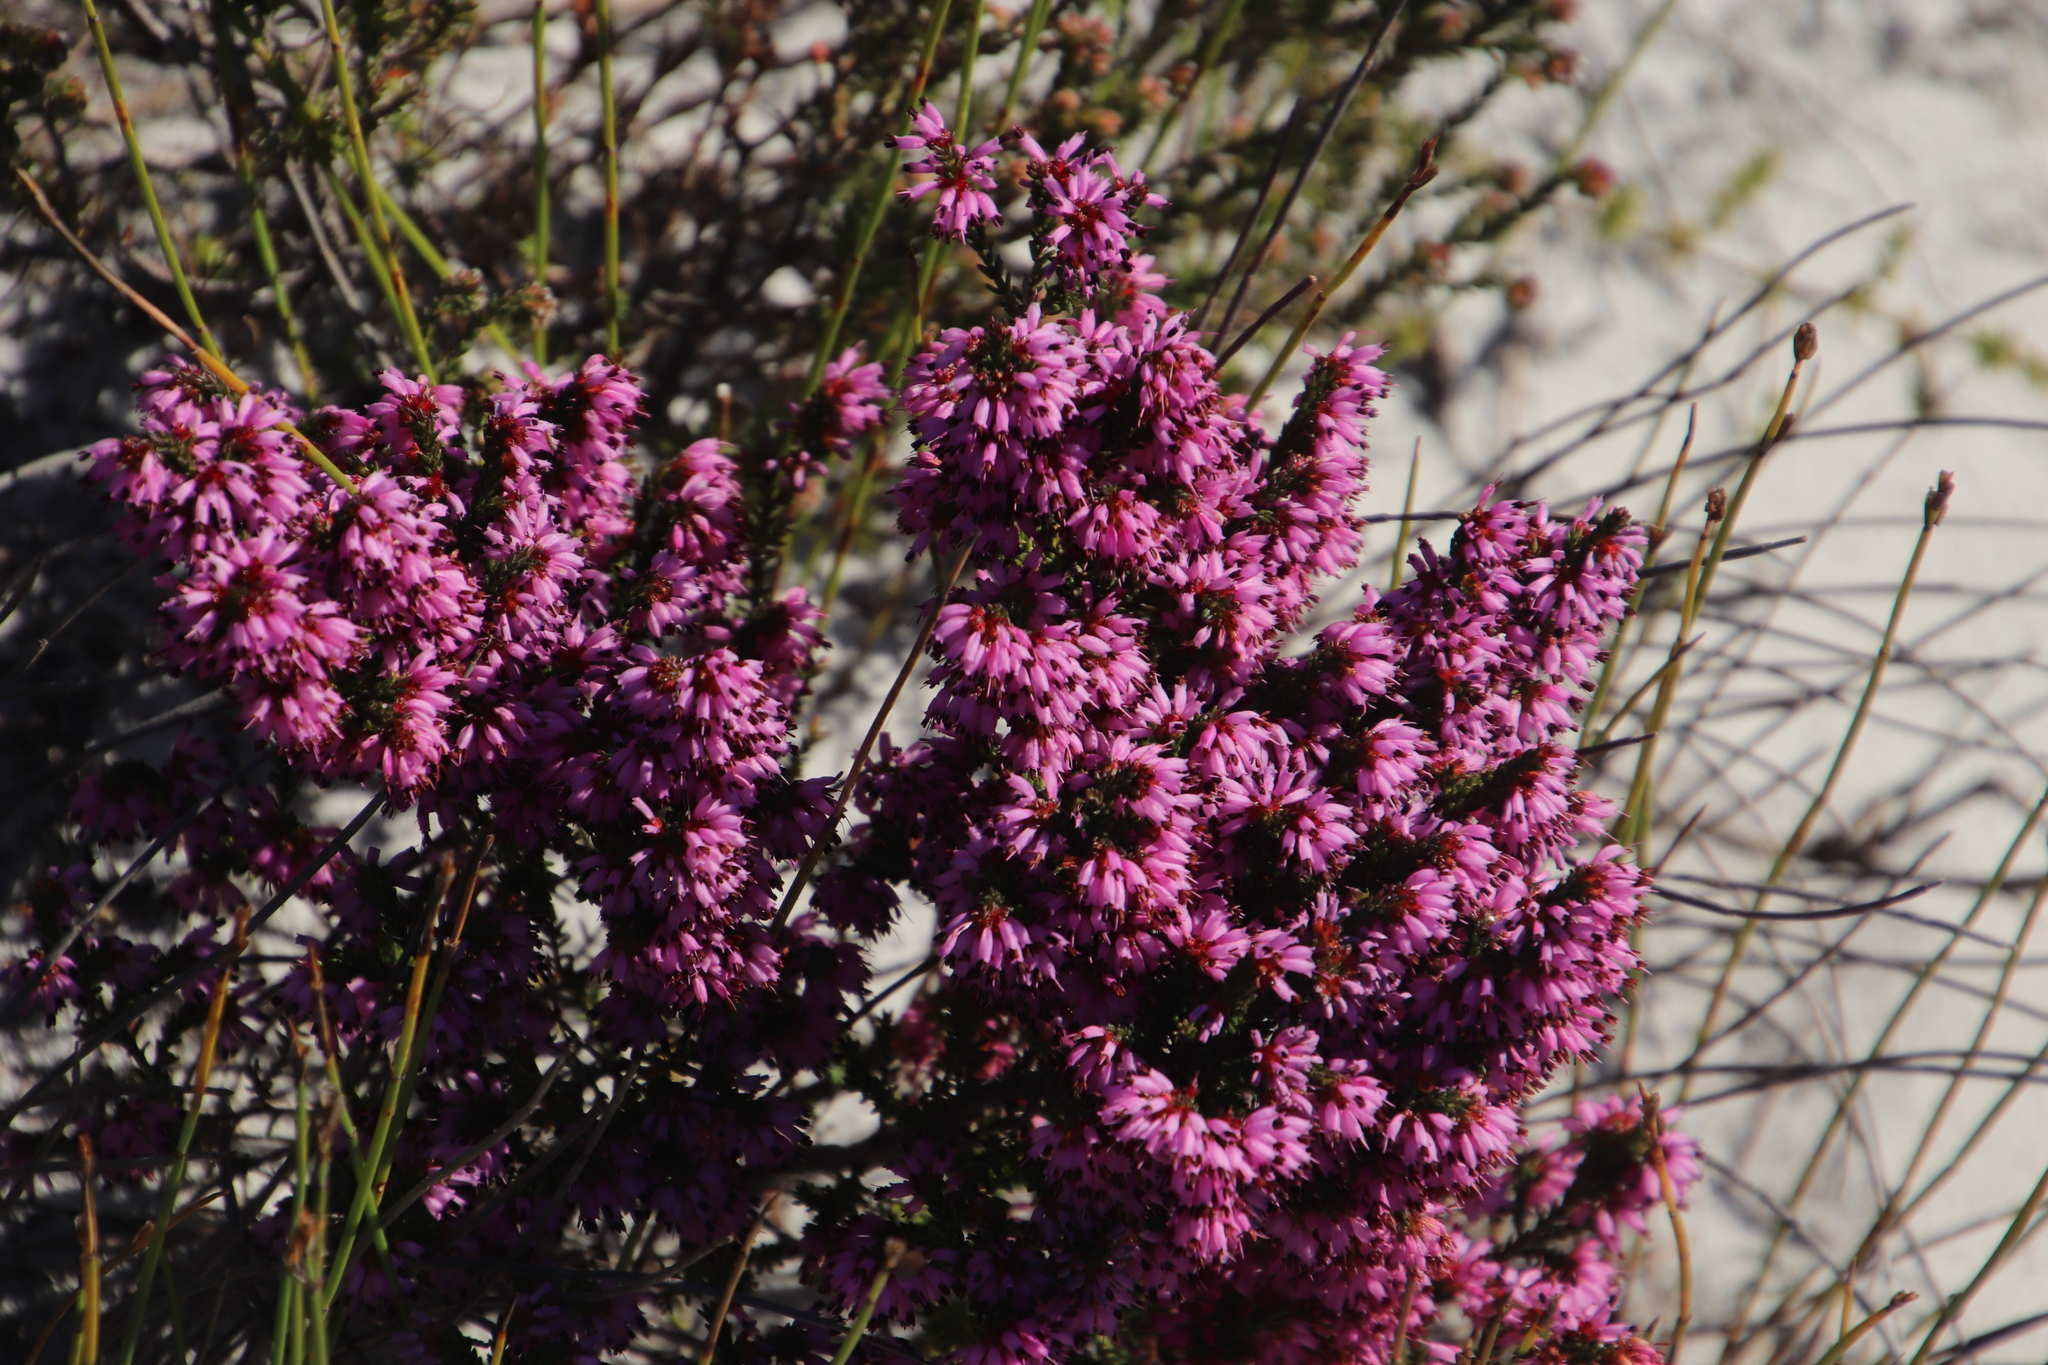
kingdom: Plantae
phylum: Tracheophyta
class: Magnoliopsida
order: Ericales
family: Ericaceae
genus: Erica
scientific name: Erica glabella
